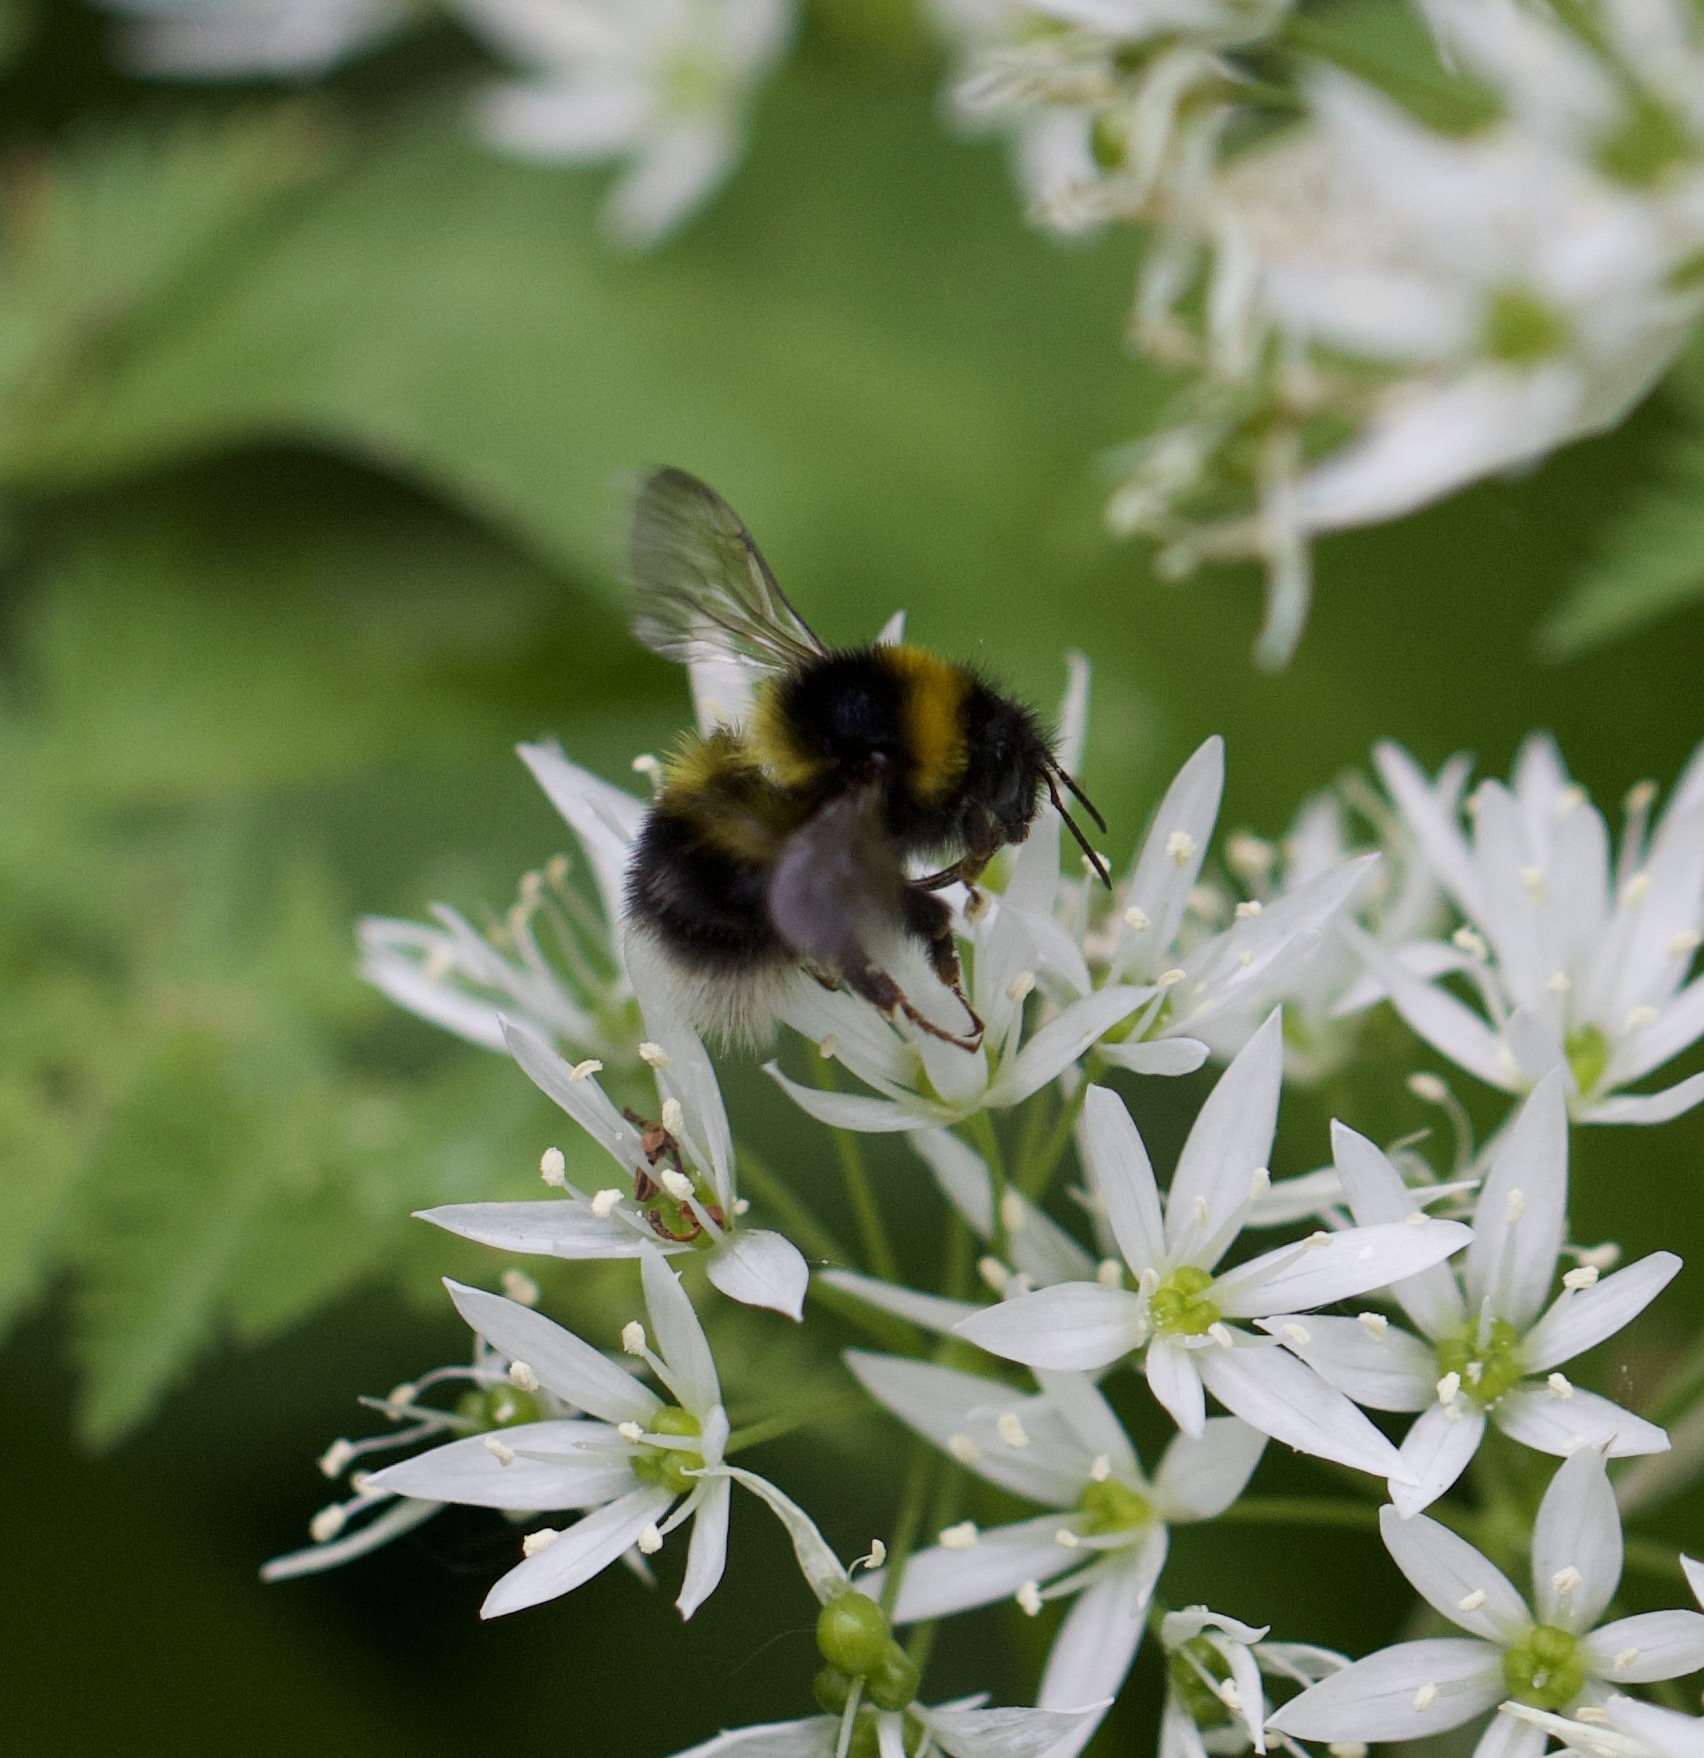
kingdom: Animalia
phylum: Arthropoda
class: Insecta
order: Hymenoptera
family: Apidae
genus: Bombus
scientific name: Bombus hortorum
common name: Garden bumblebee
